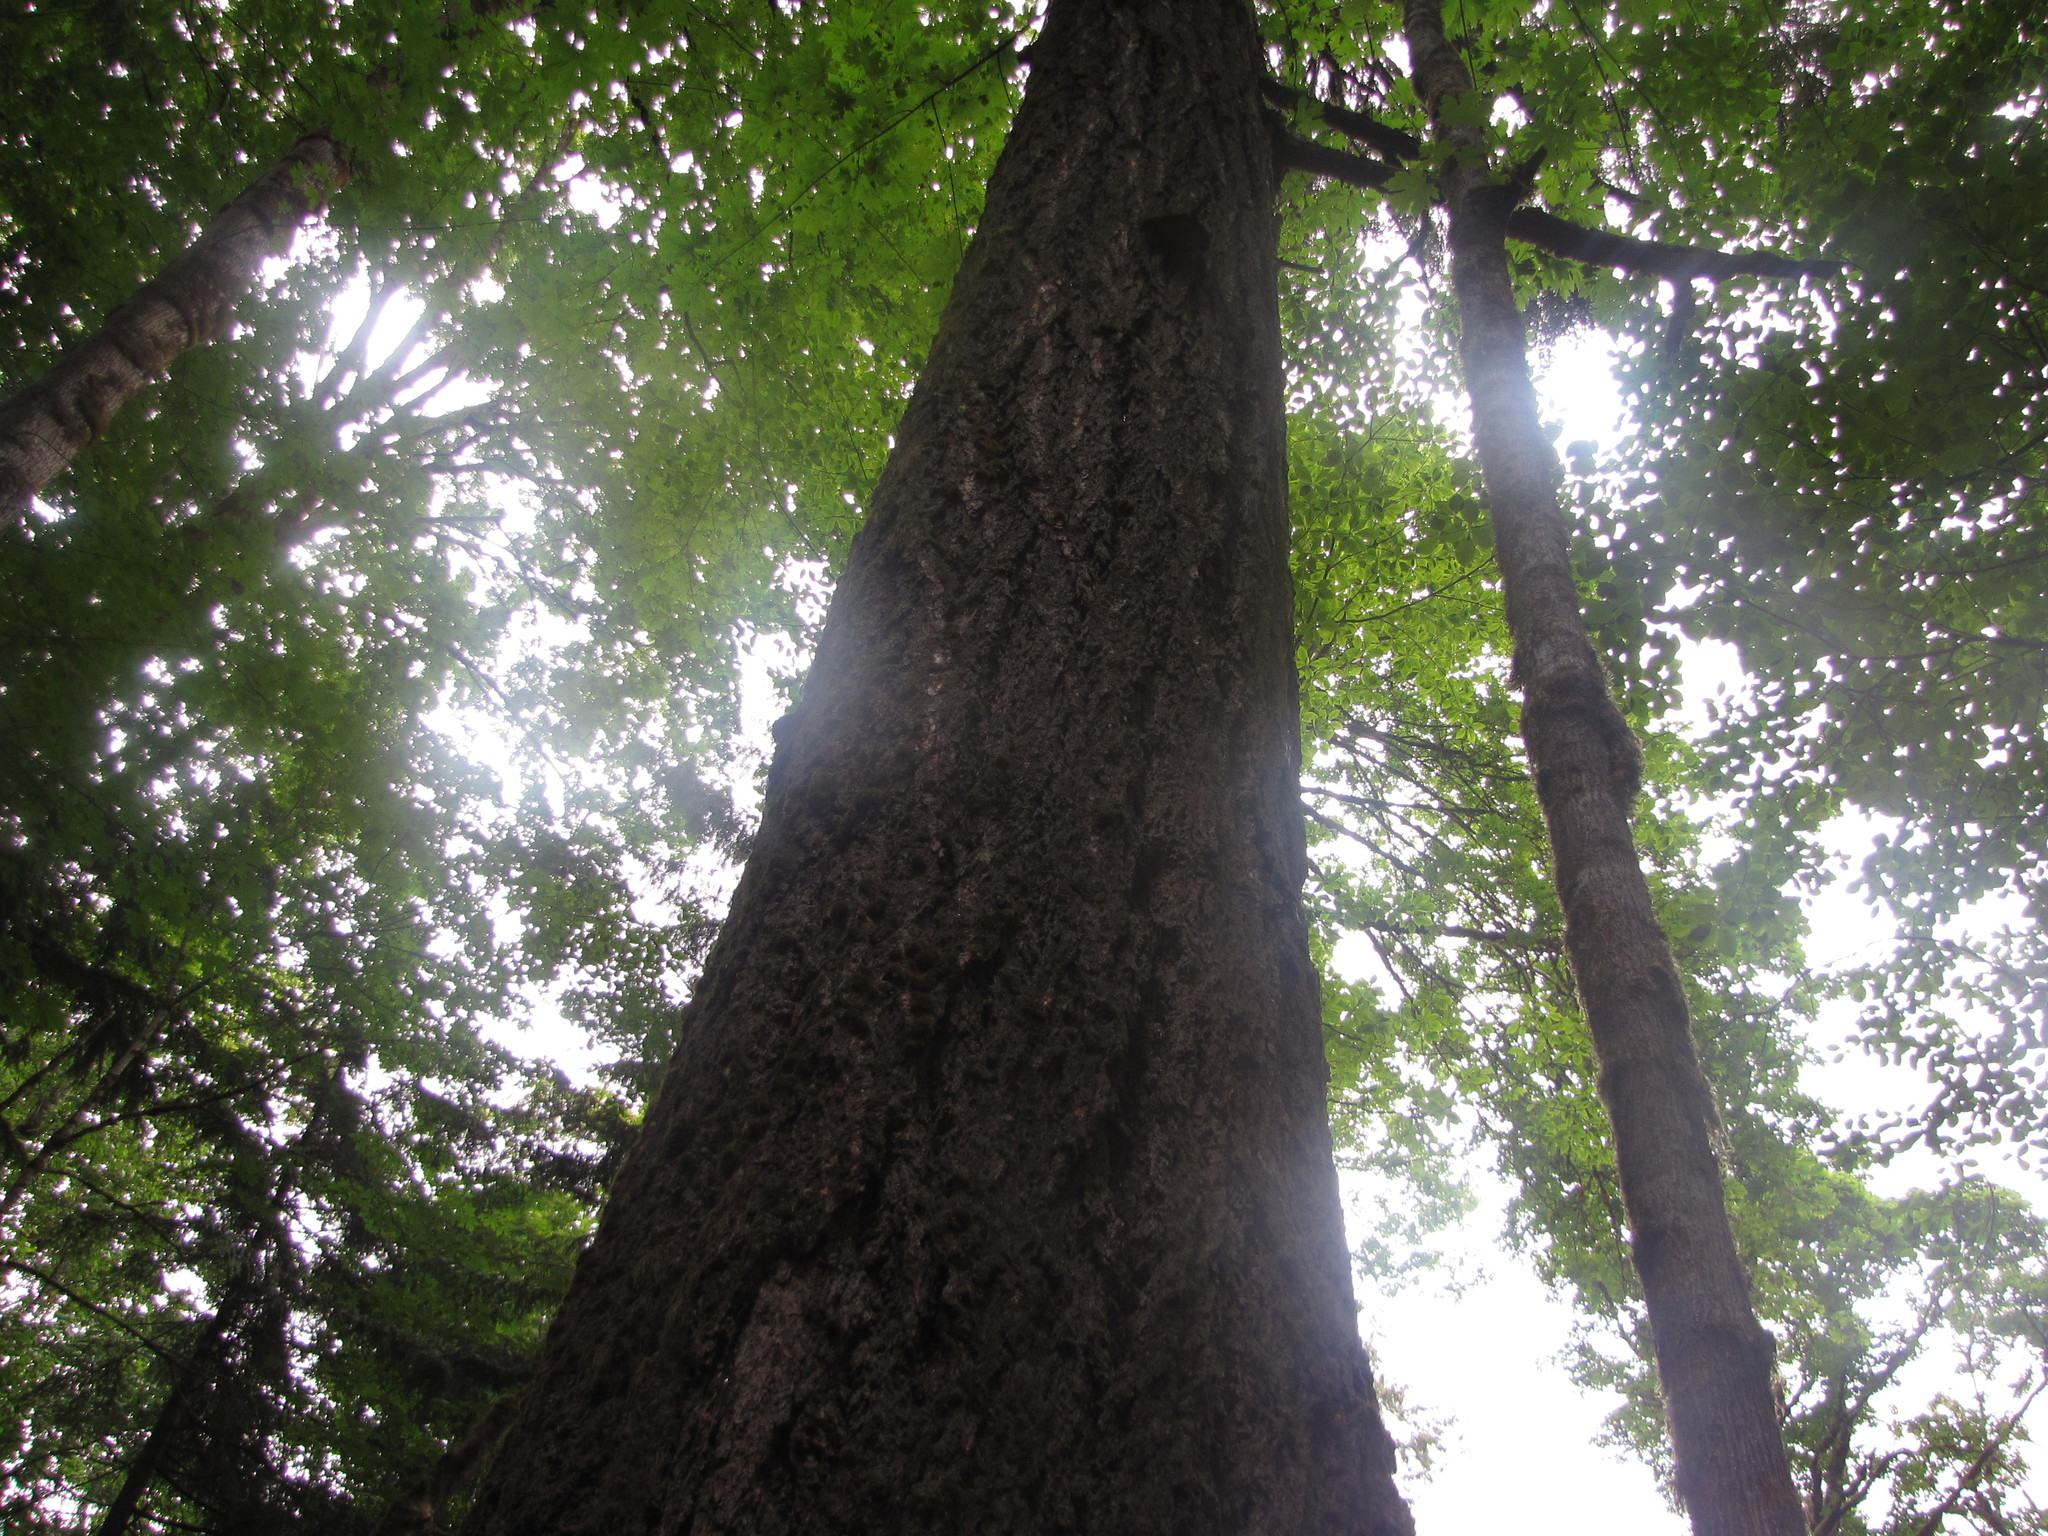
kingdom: Plantae
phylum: Tracheophyta
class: Magnoliopsida
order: Sapindales
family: Sapindaceae
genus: Acer
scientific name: Acer macrophyllum
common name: Oregon maple
